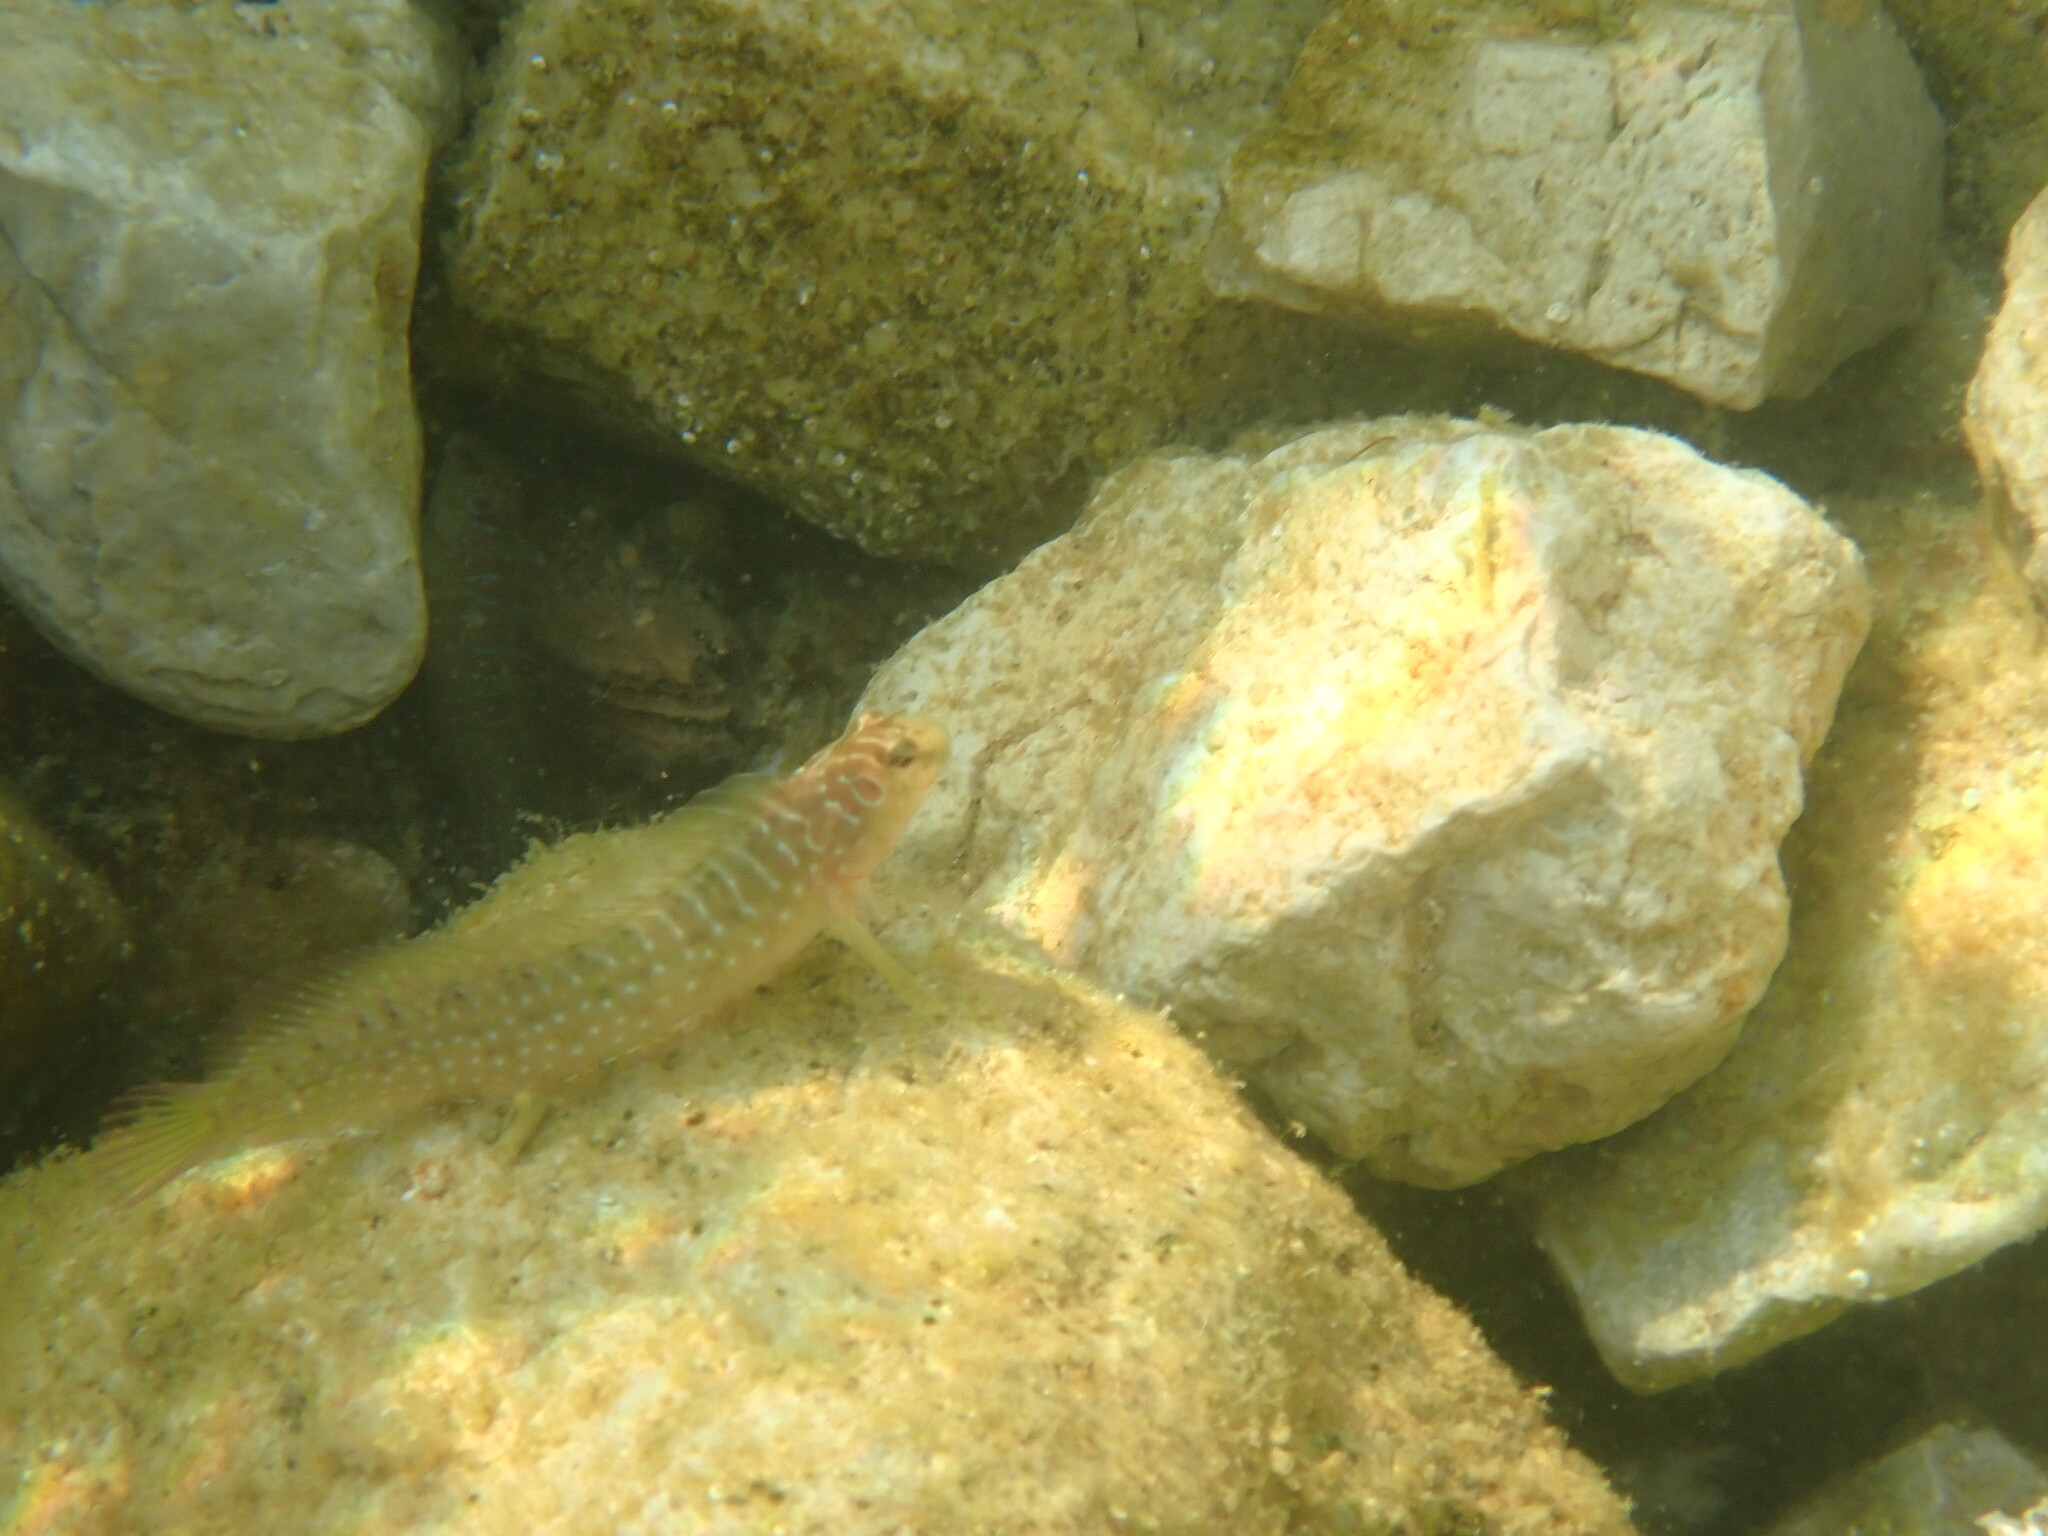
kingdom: Animalia
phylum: Chordata
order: Perciformes
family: Blenniidae
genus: Salaria
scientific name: Salaria pavo
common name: Peacock blenny
